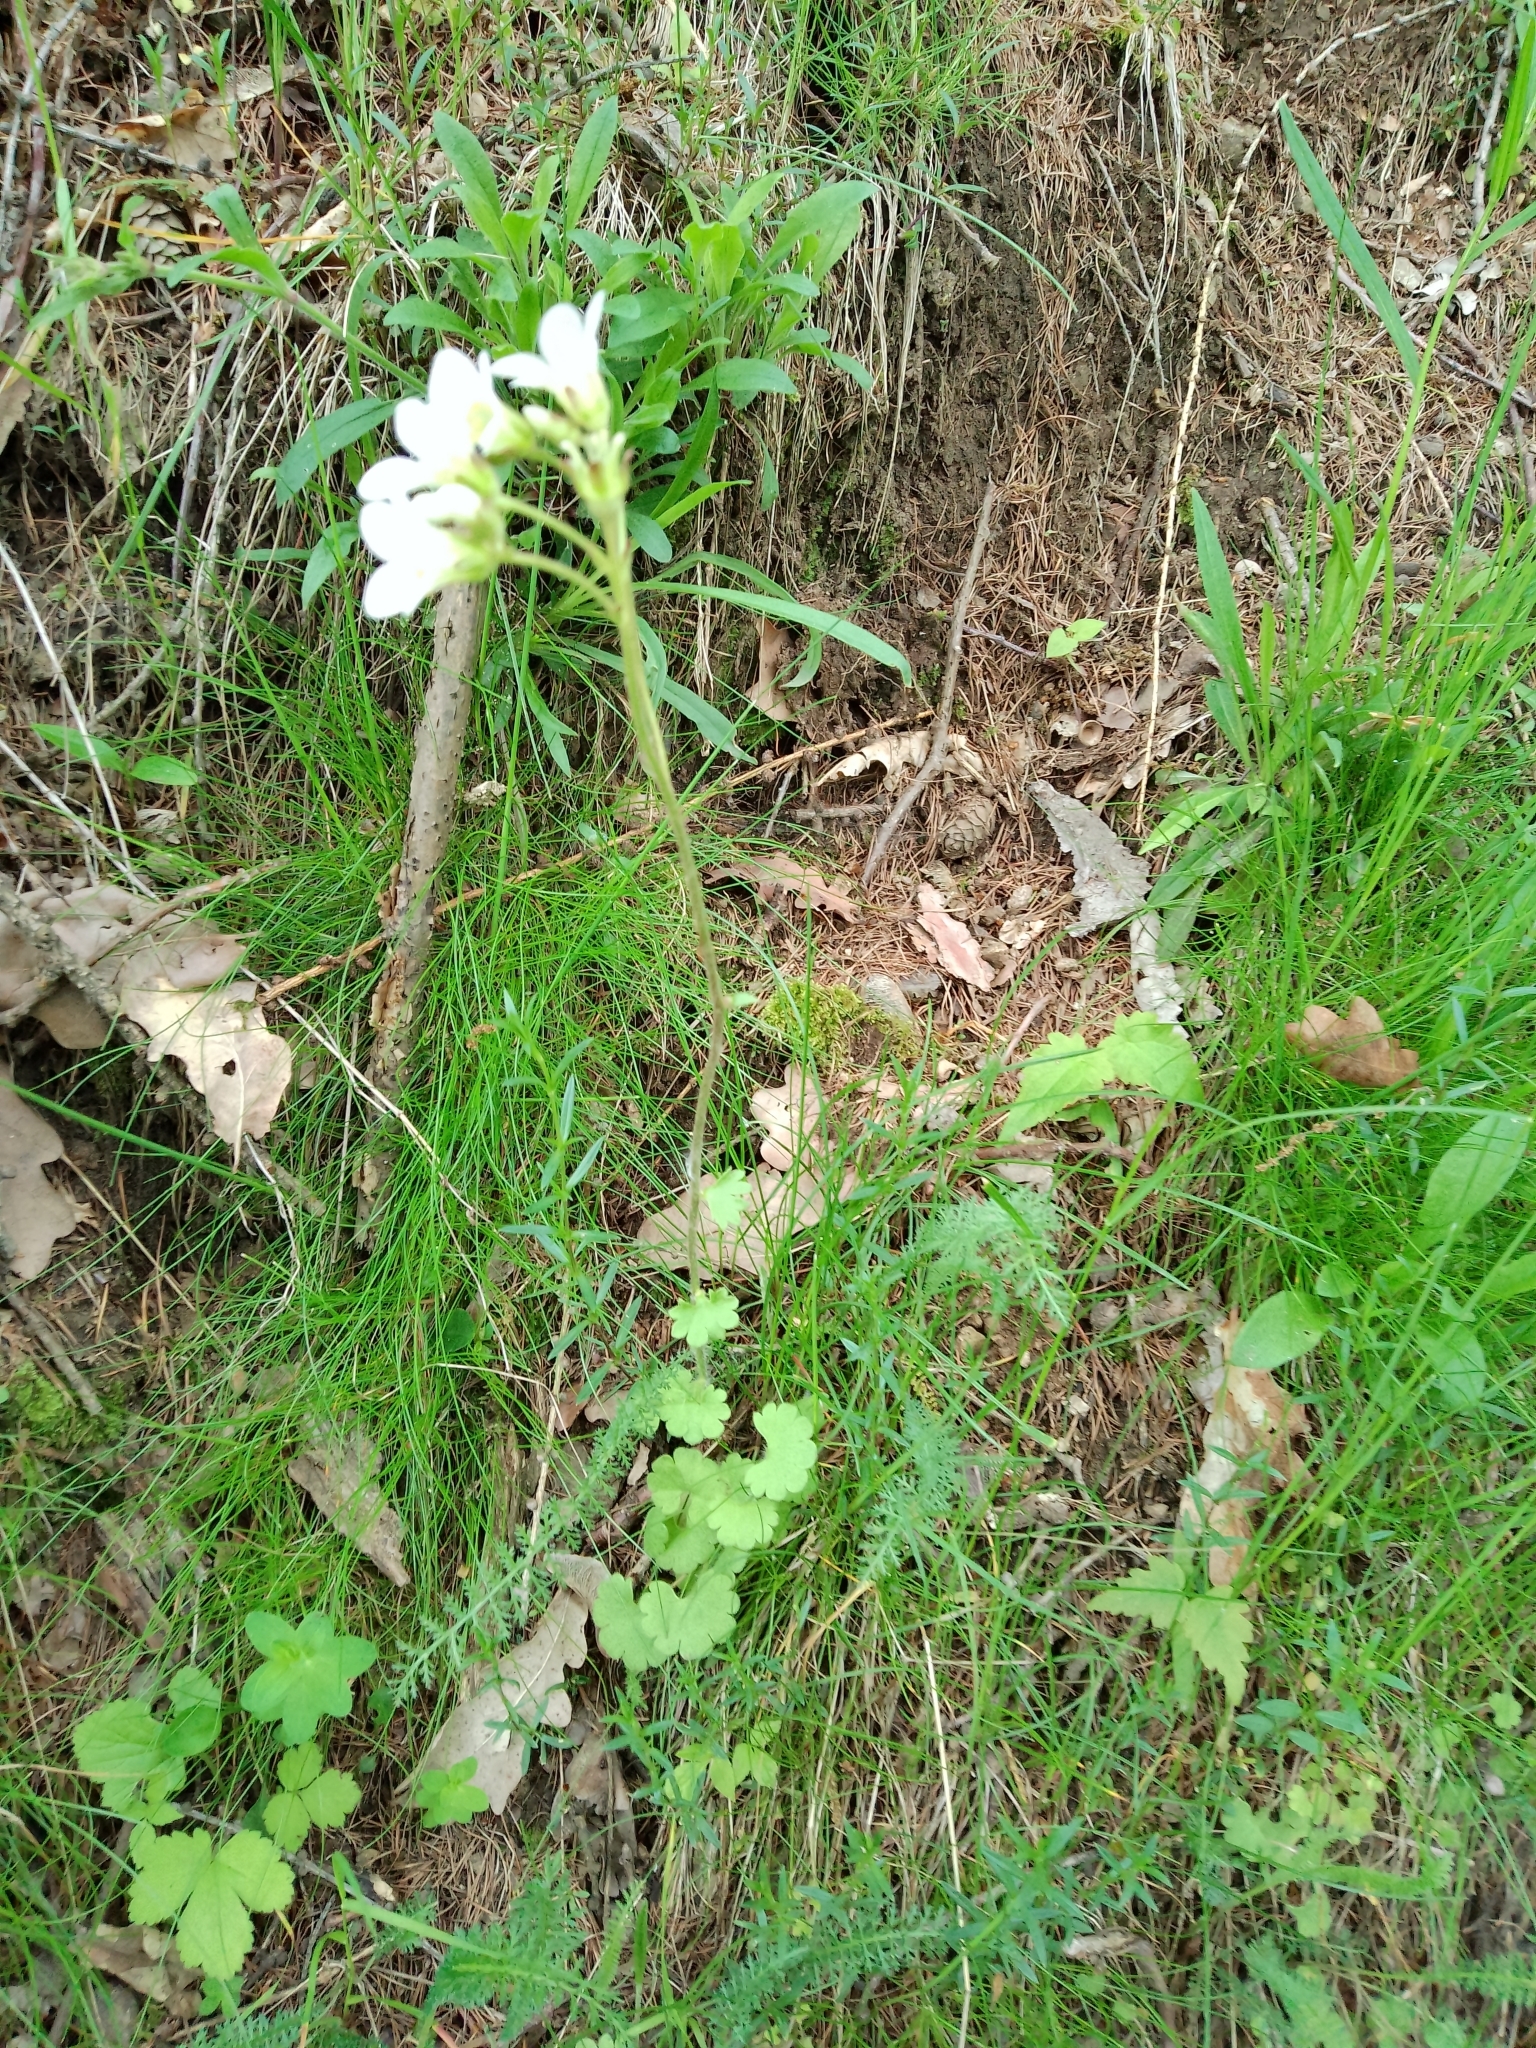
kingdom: Plantae
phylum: Tracheophyta
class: Magnoliopsida
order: Saxifragales
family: Saxifragaceae
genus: Saxifraga
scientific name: Saxifraga granulata
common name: Meadow saxifrage
